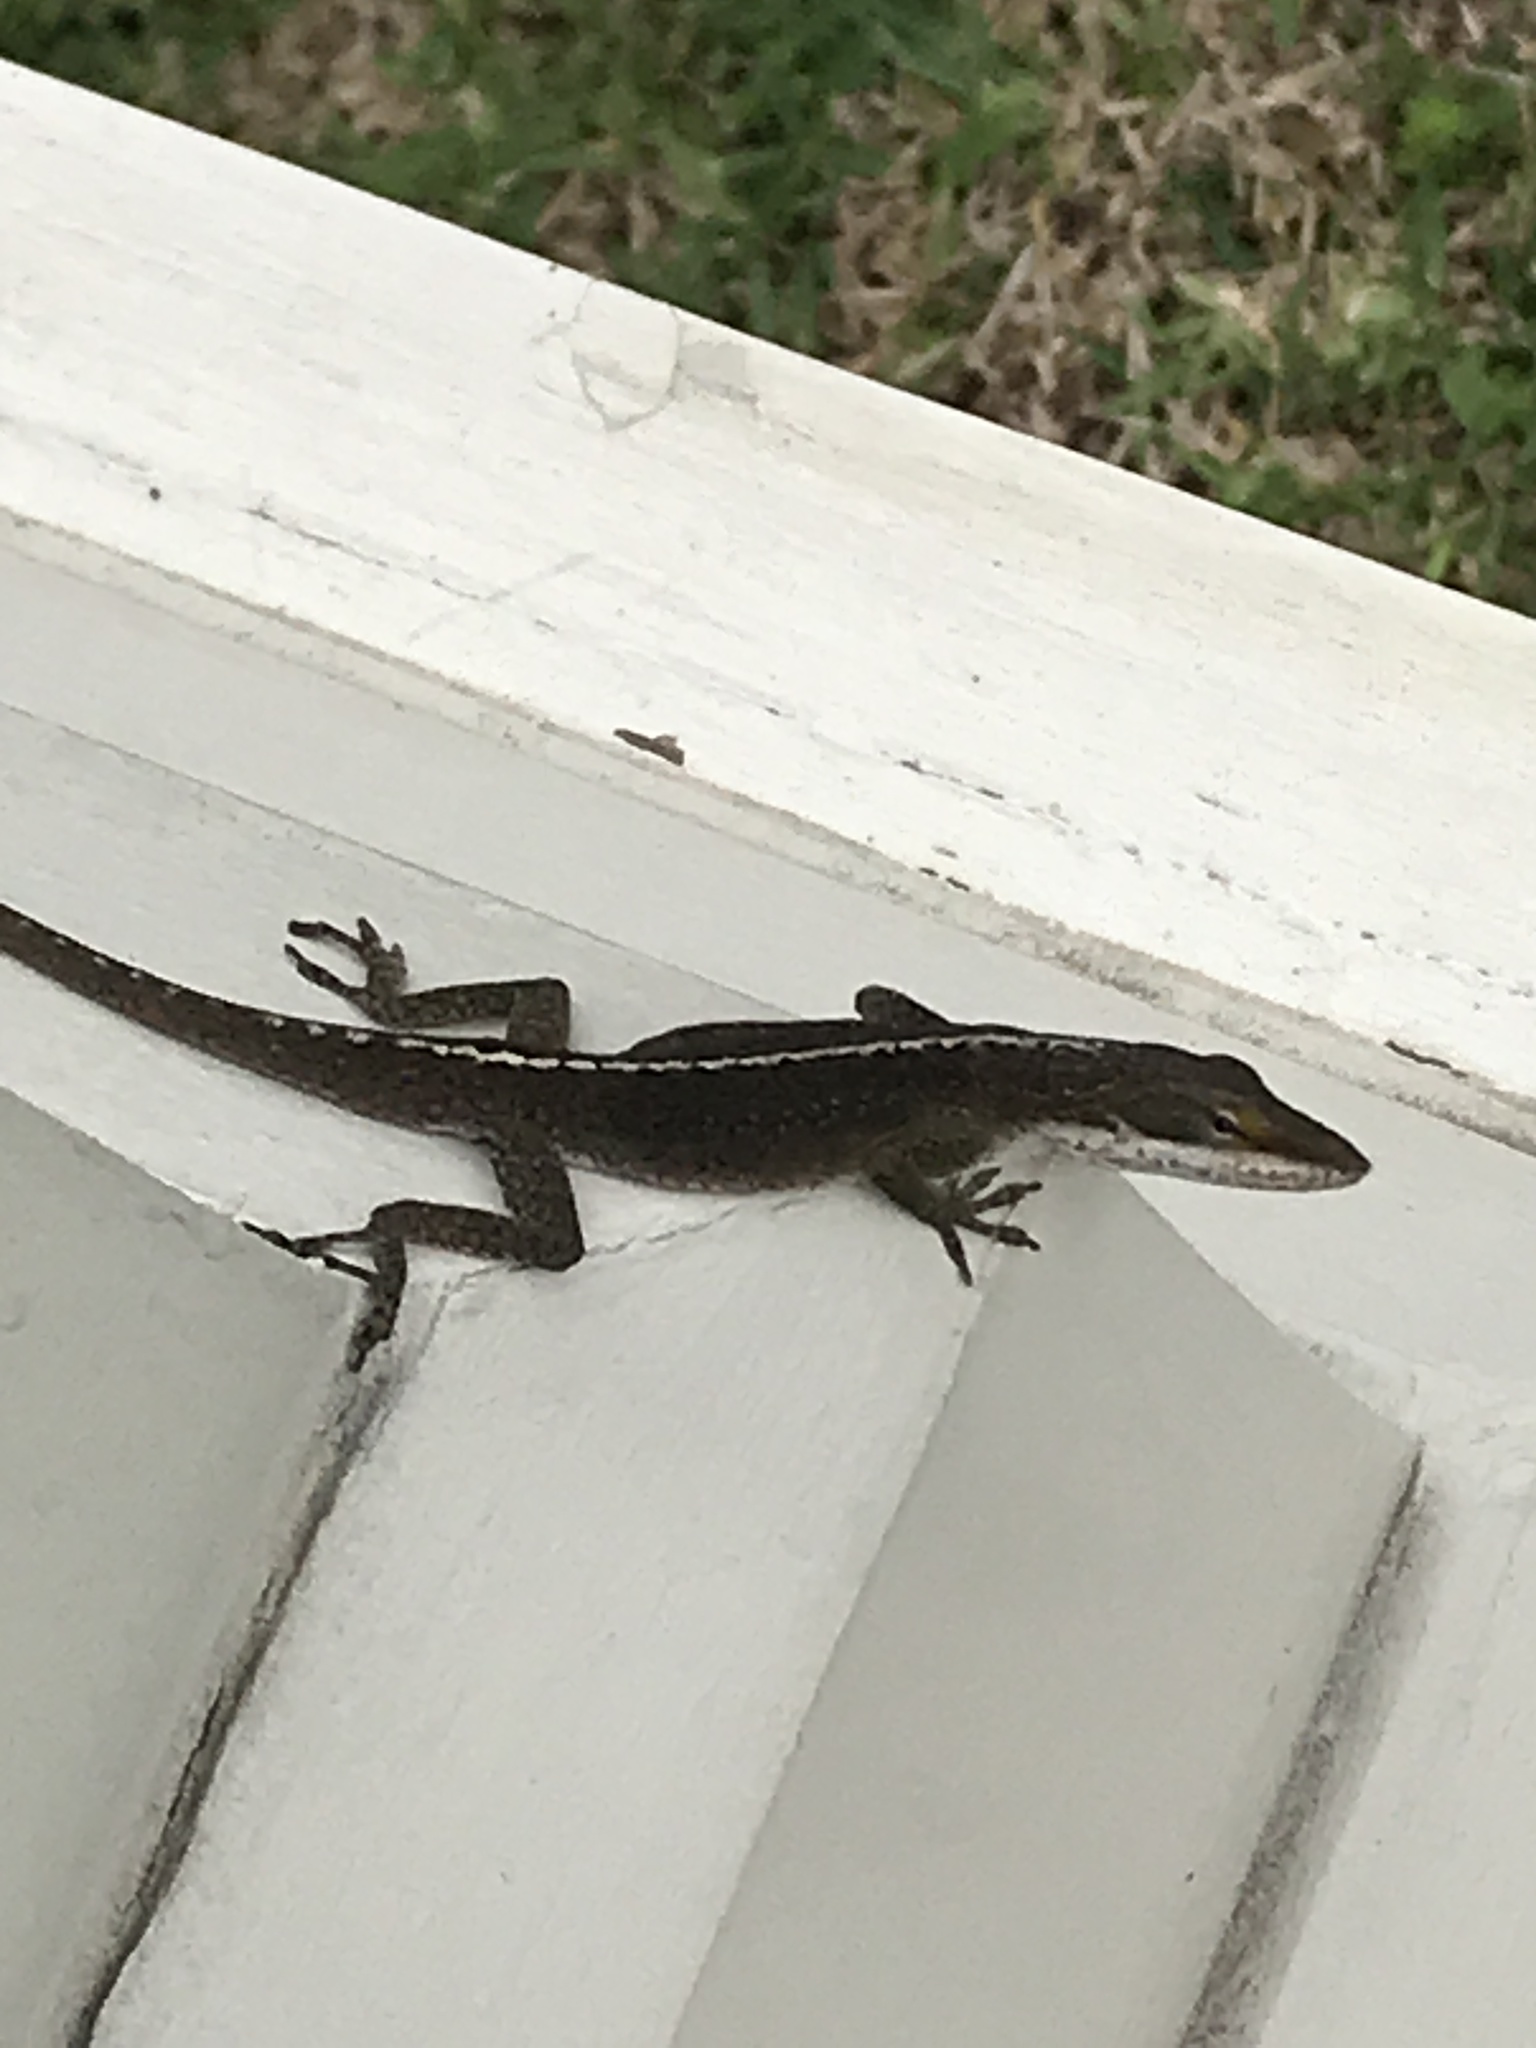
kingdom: Animalia
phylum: Chordata
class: Squamata
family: Dactyloidae
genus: Anolis
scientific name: Anolis carolinensis
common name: Green anole
